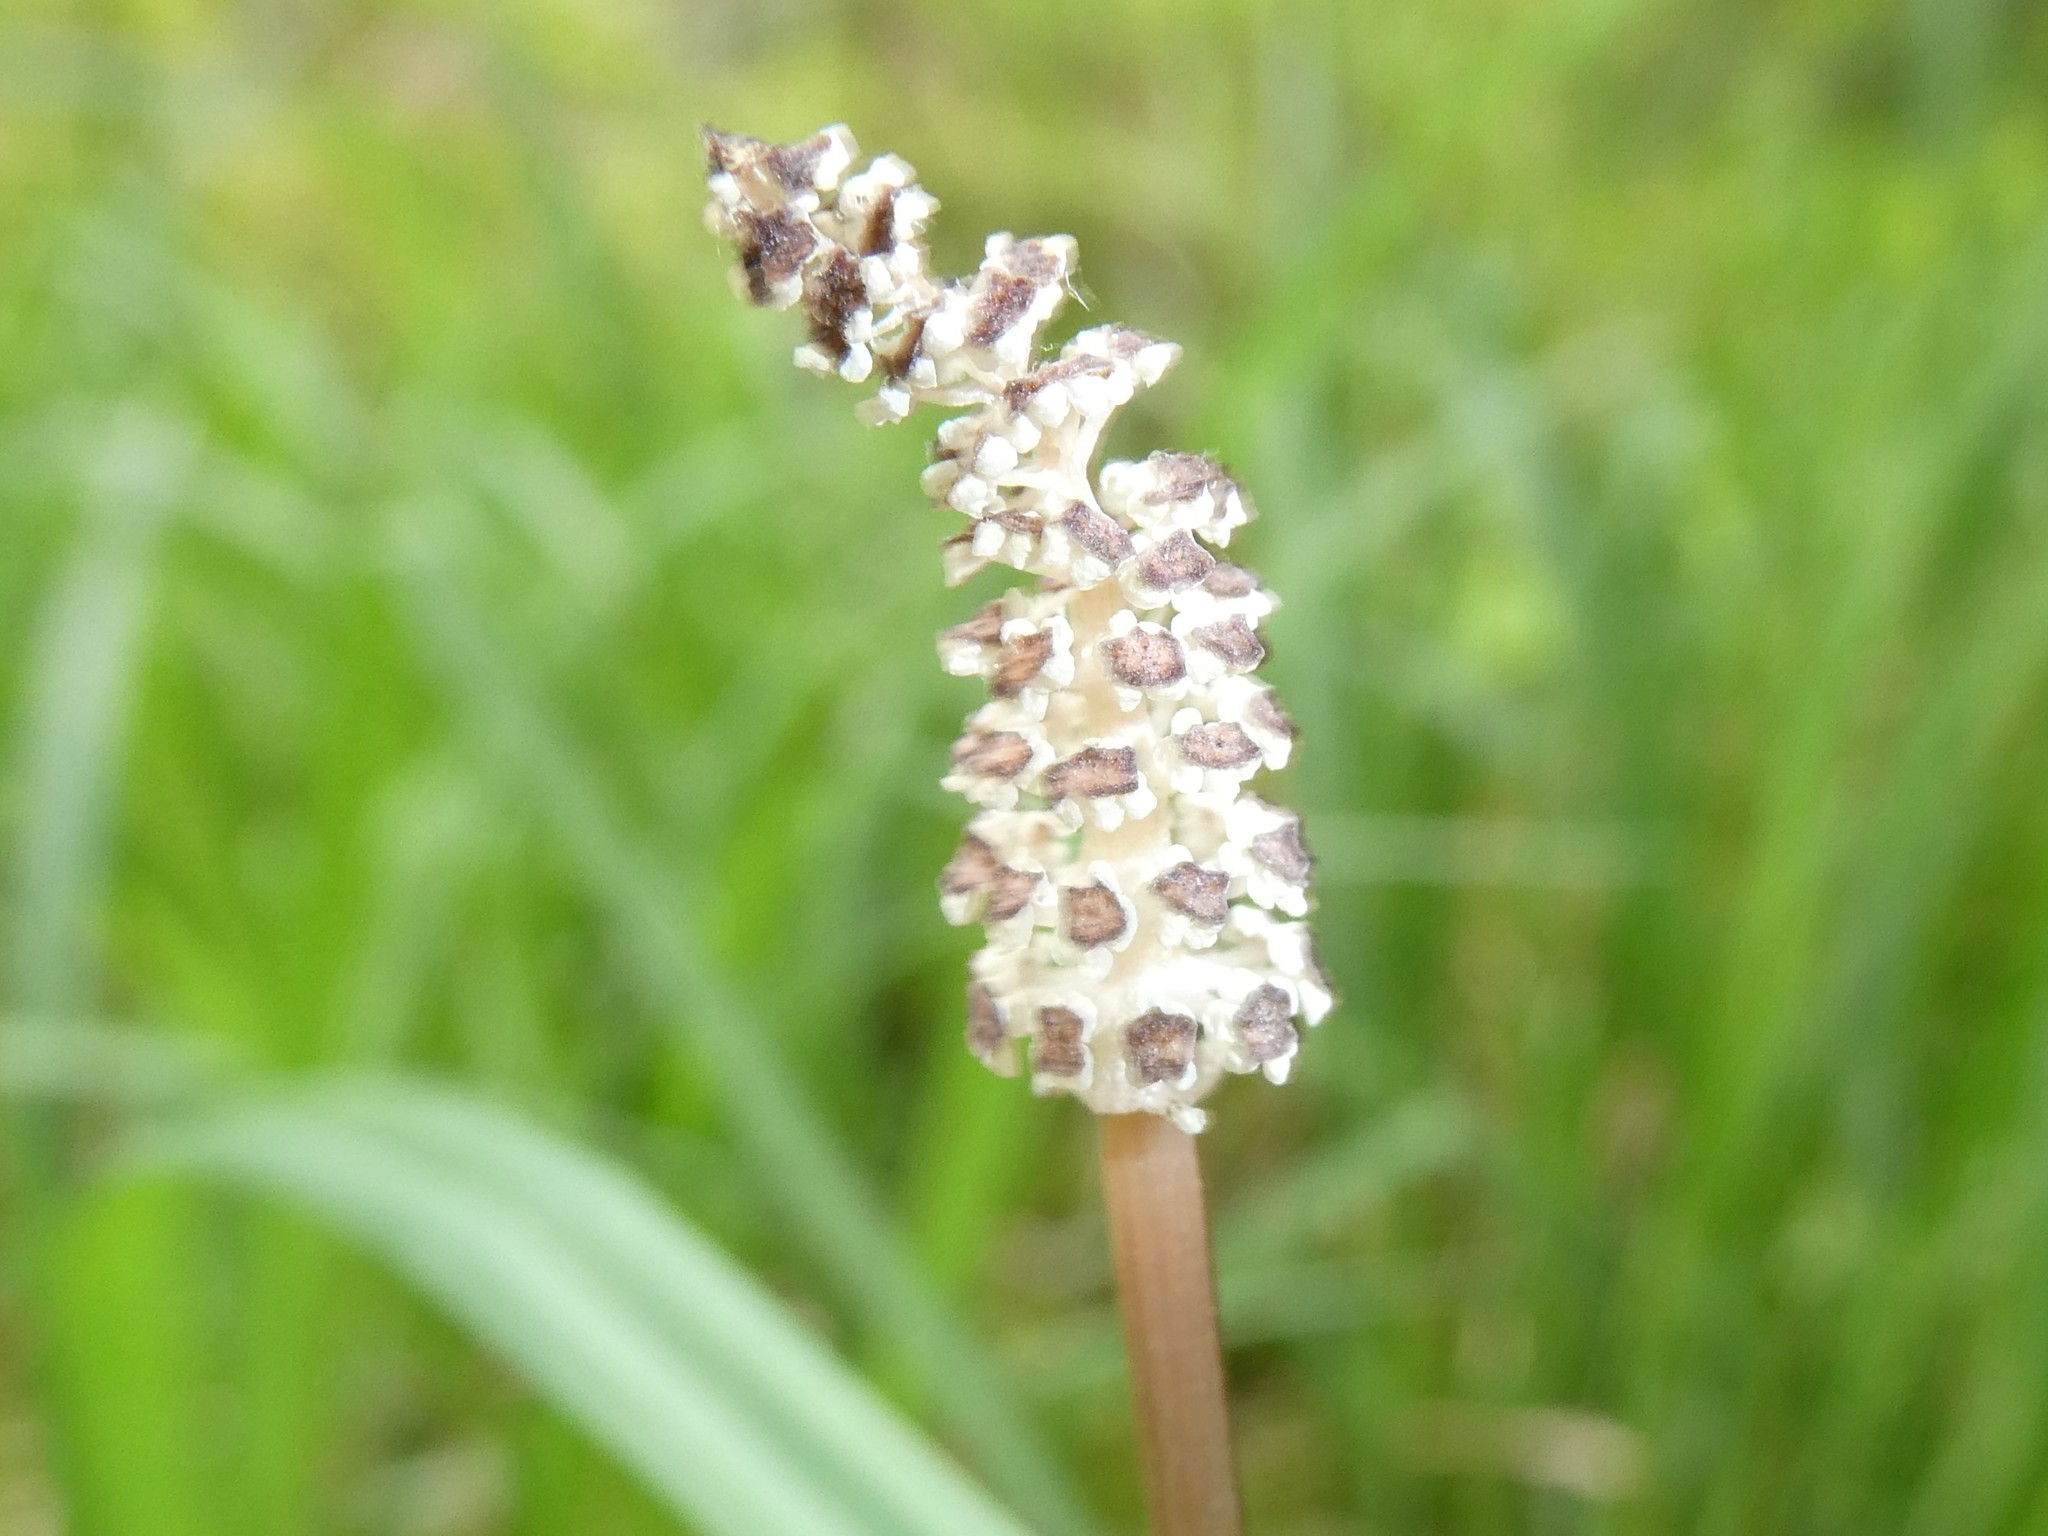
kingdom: Plantae
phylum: Tracheophyta
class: Polypodiopsida
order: Equisetales
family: Equisetaceae
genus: Equisetum
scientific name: Equisetum sylvaticum
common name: Wood horsetail
